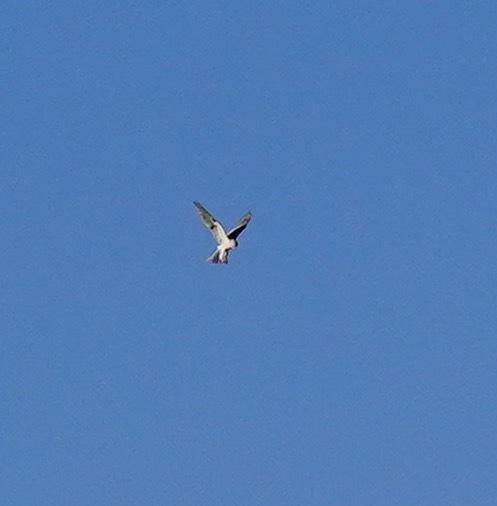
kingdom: Animalia
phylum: Chordata
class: Aves
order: Accipitriformes
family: Accipitridae
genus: Elanus
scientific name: Elanus leucurus
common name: White-tailed kite
